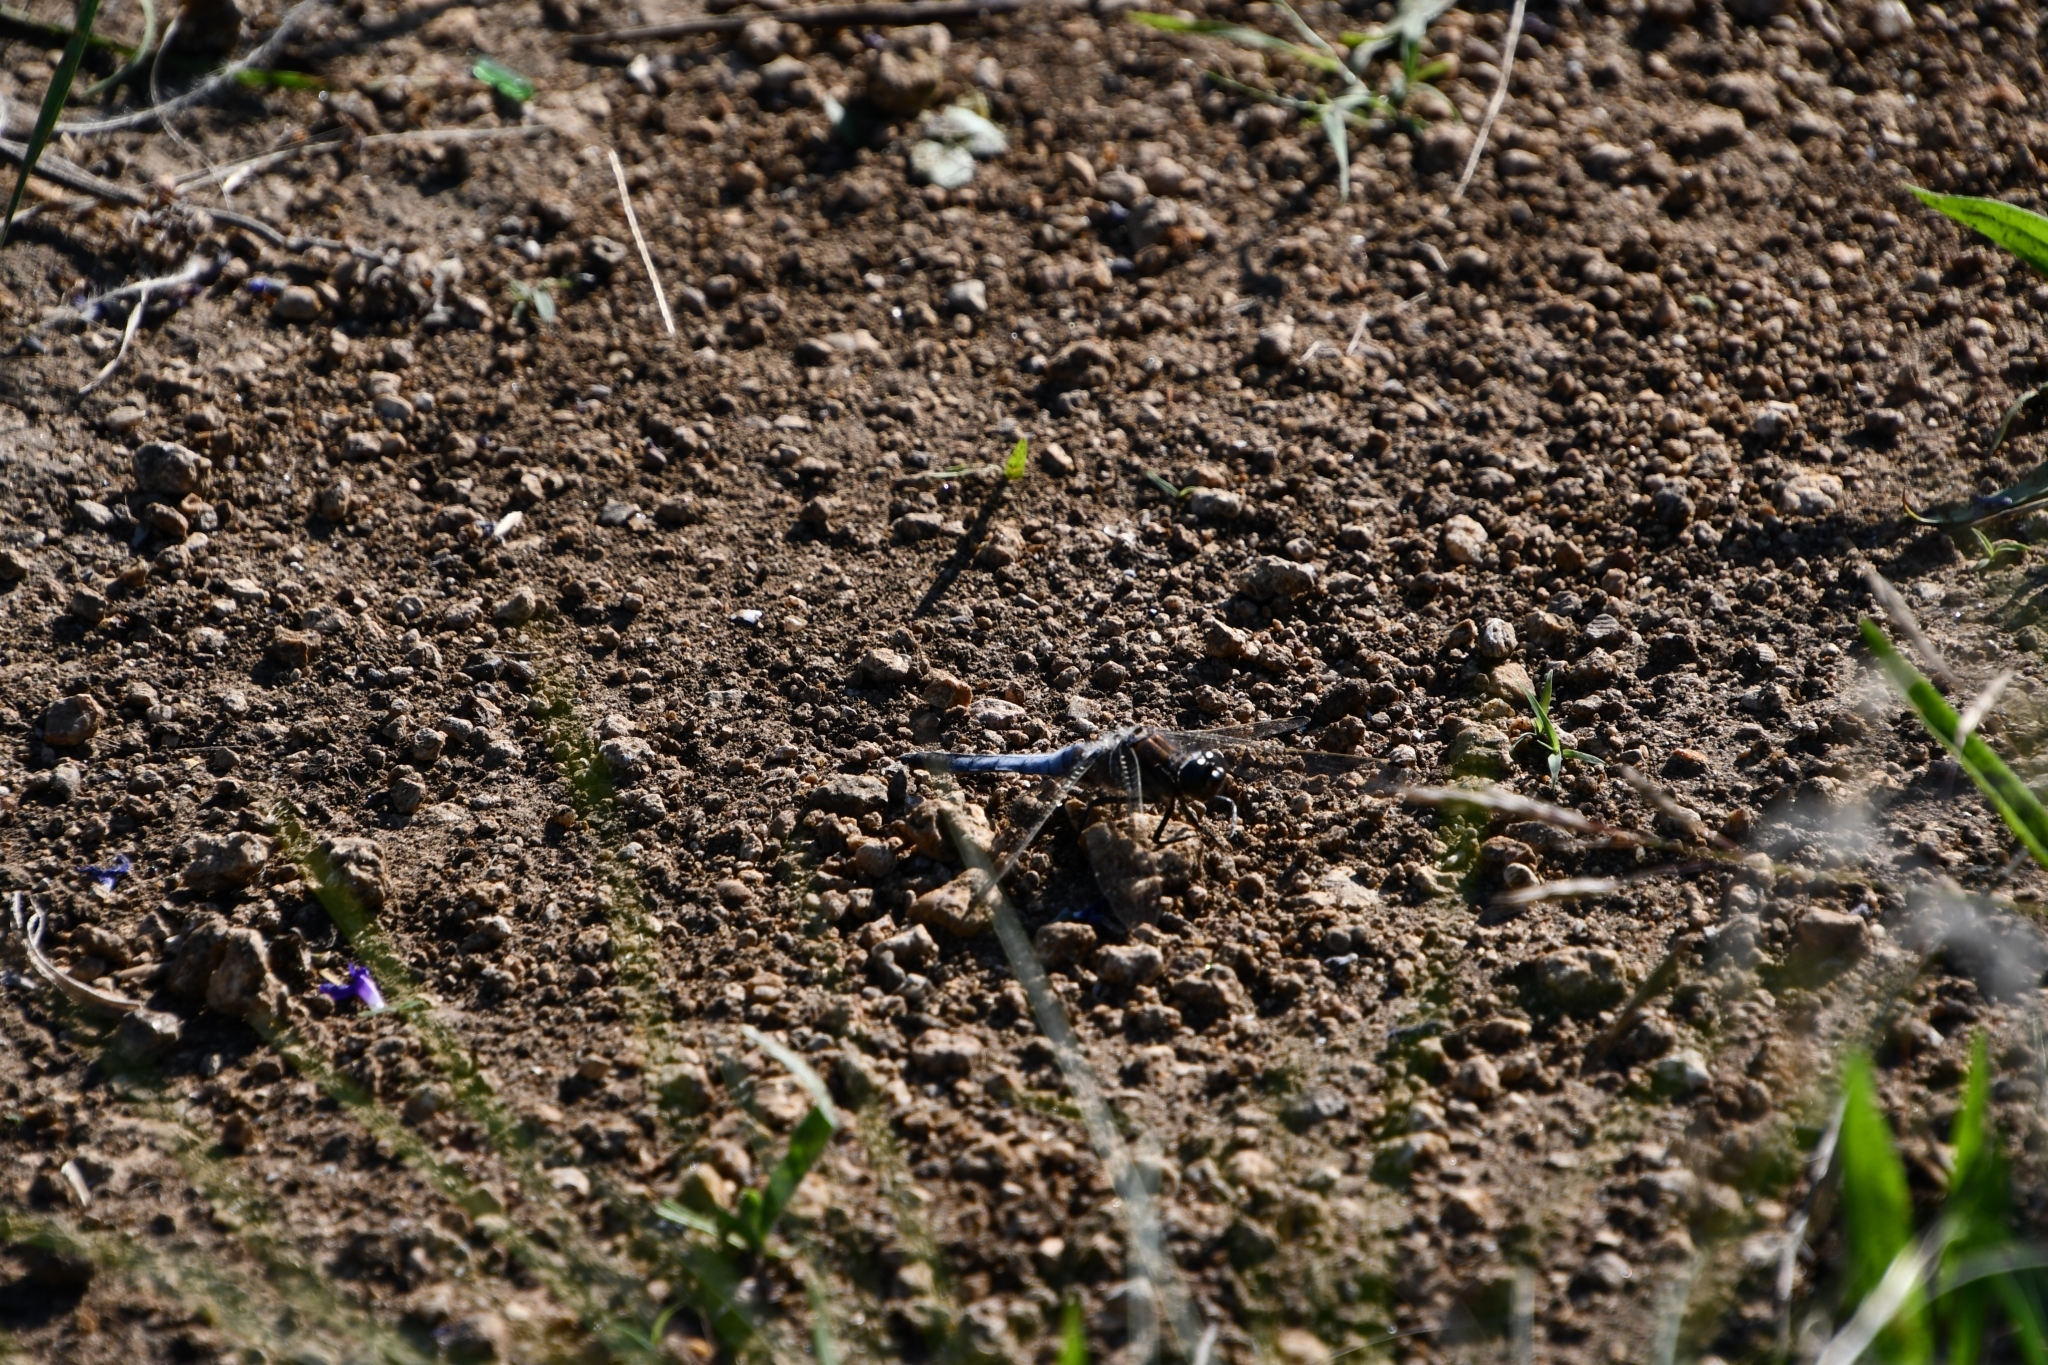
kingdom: Animalia
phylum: Arthropoda
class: Insecta
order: Odonata
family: Libellulidae
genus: Orthetrum
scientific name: Orthetrum cancellatum
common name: Black-tailed skimmer
